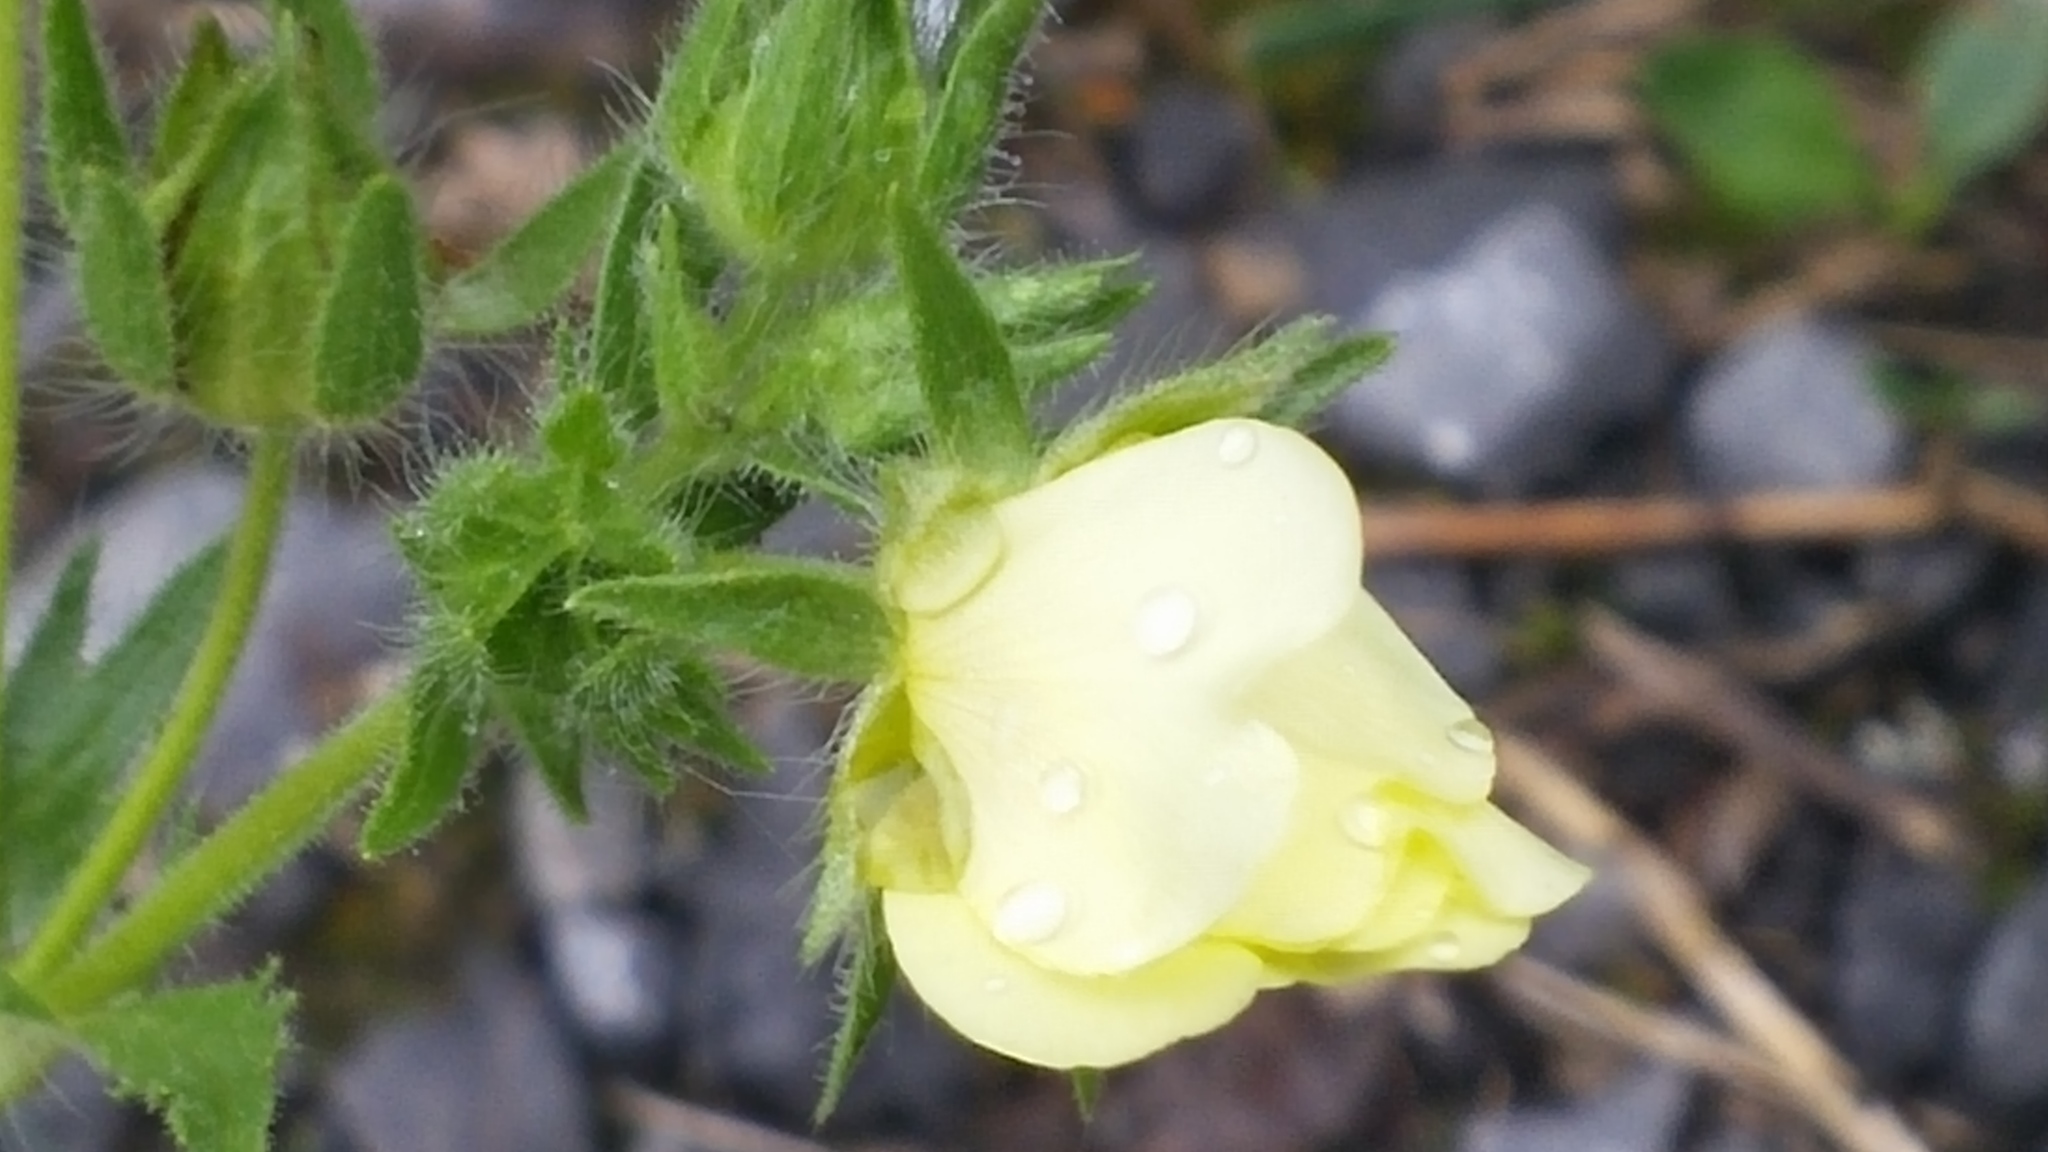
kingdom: Plantae
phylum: Tracheophyta
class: Magnoliopsida
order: Rosales
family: Rosaceae
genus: Potentilla
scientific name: Potentilla recta
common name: Sulphur cinquefoil
